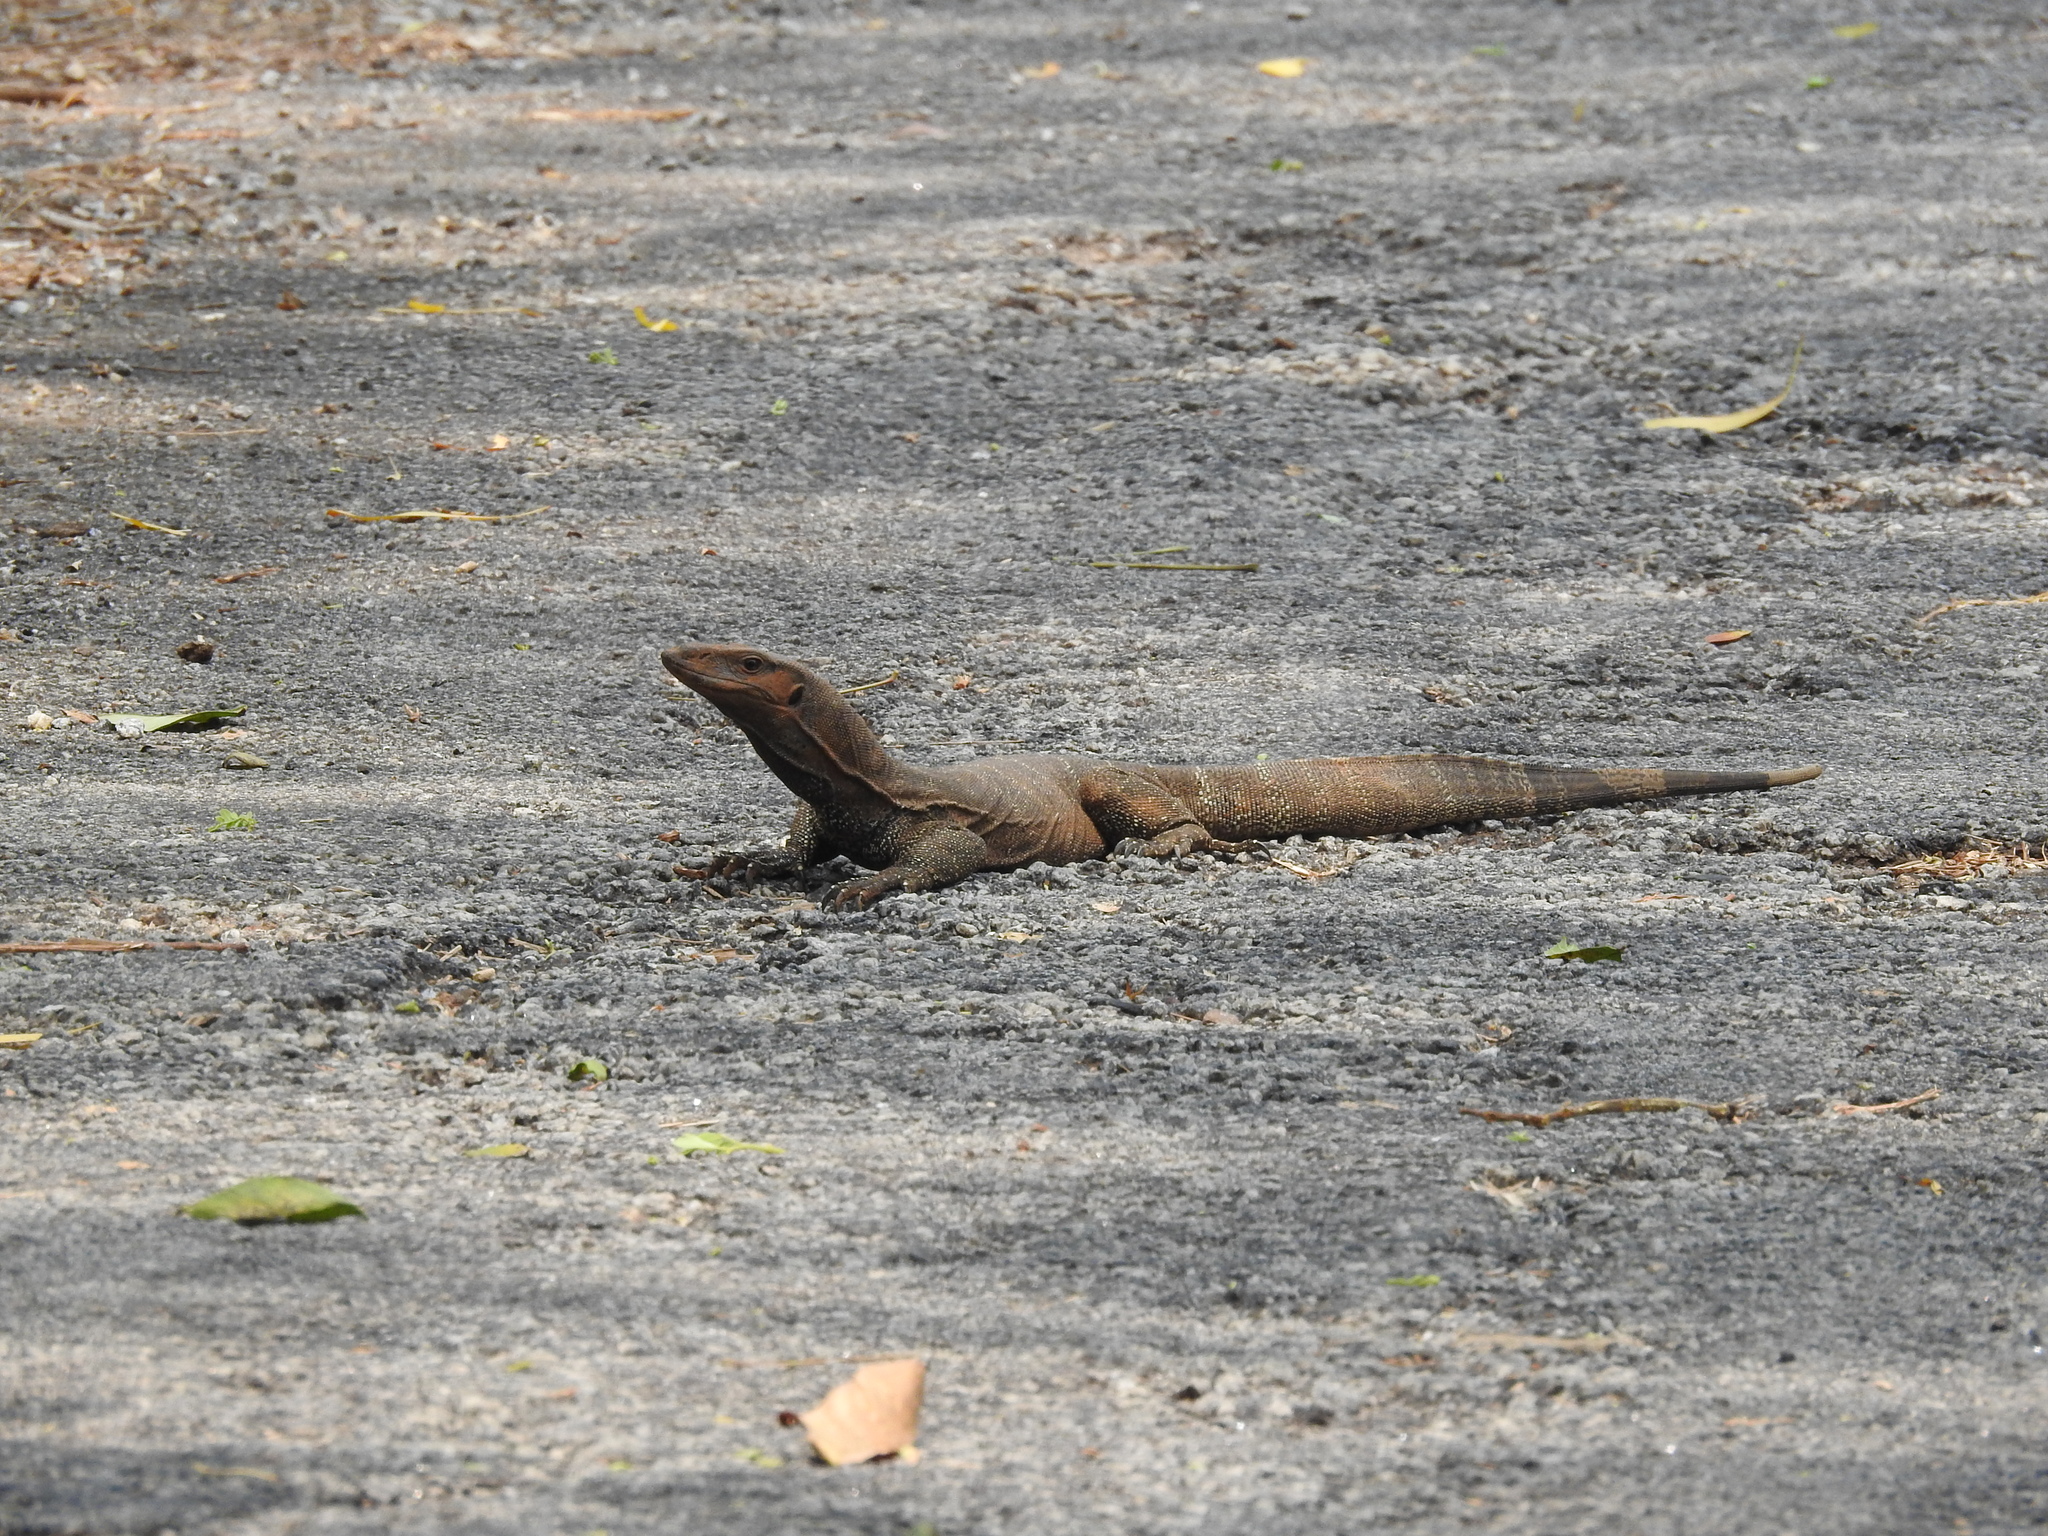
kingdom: Animalia
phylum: Chordata
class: Squamata
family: Varanidae
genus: Varanus
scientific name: Varanus bengalensis
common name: Bengal monitor
